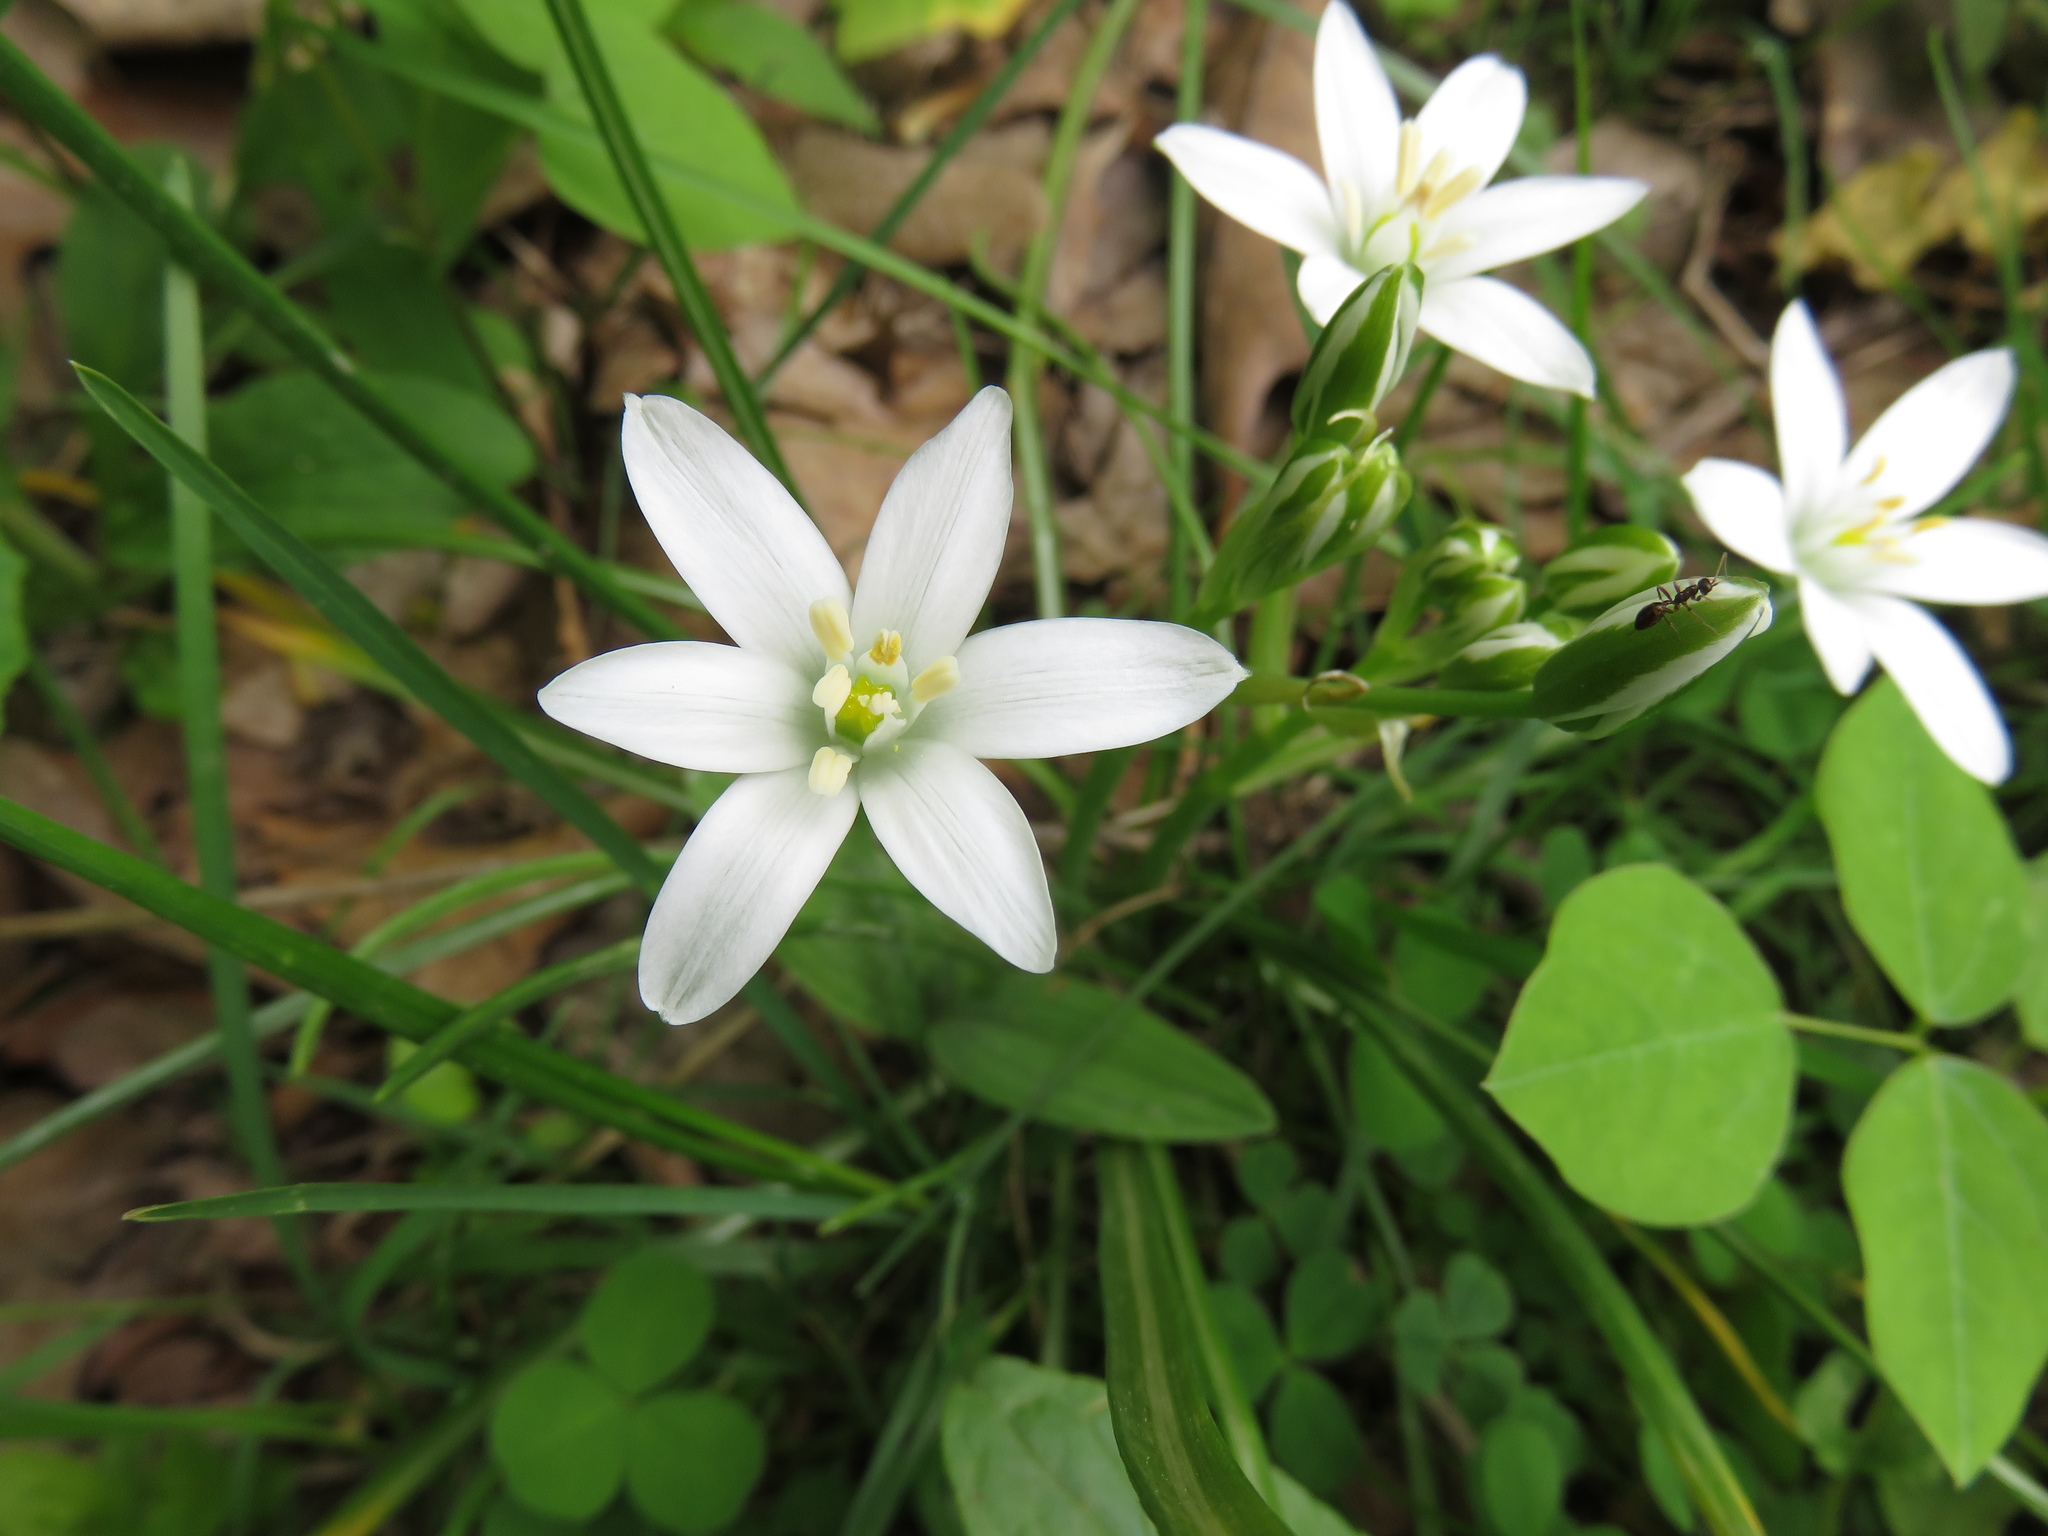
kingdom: Plantae
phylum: Tracheophyta
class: Liliopsida
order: Asparagales
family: Asparagaceae
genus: Ornithogalum
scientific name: Ornithogalum umbellatum
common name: Garden star-of-bethlehem
